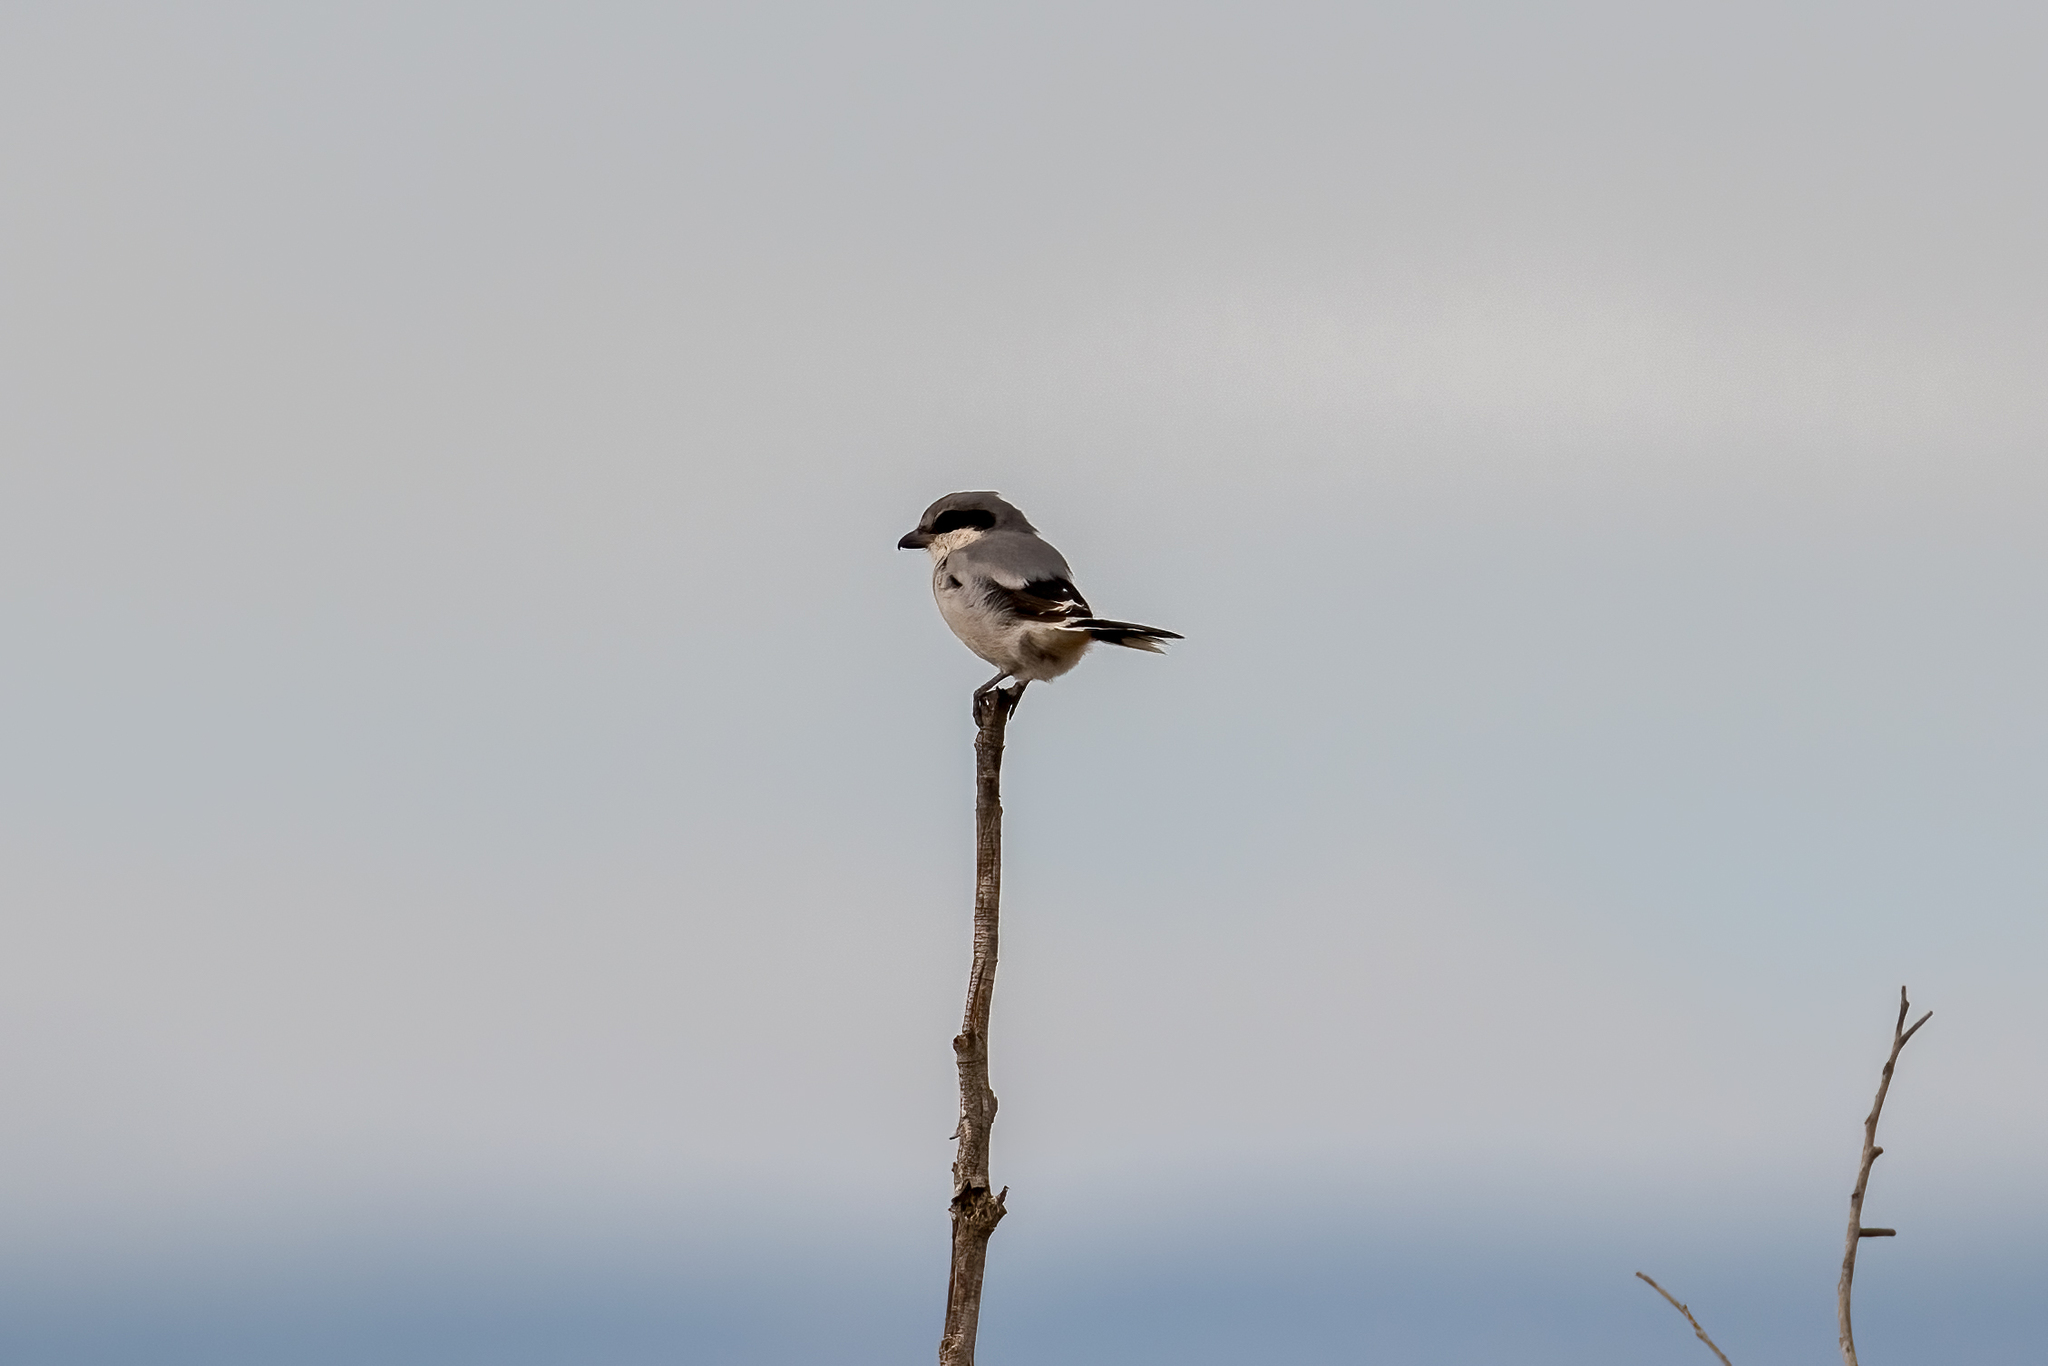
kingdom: Animalia
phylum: Chordata
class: Aves
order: Passeriformes
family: Laniidae
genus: Lanius
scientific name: Lanius ludovicianus
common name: Loggerhead shrike
